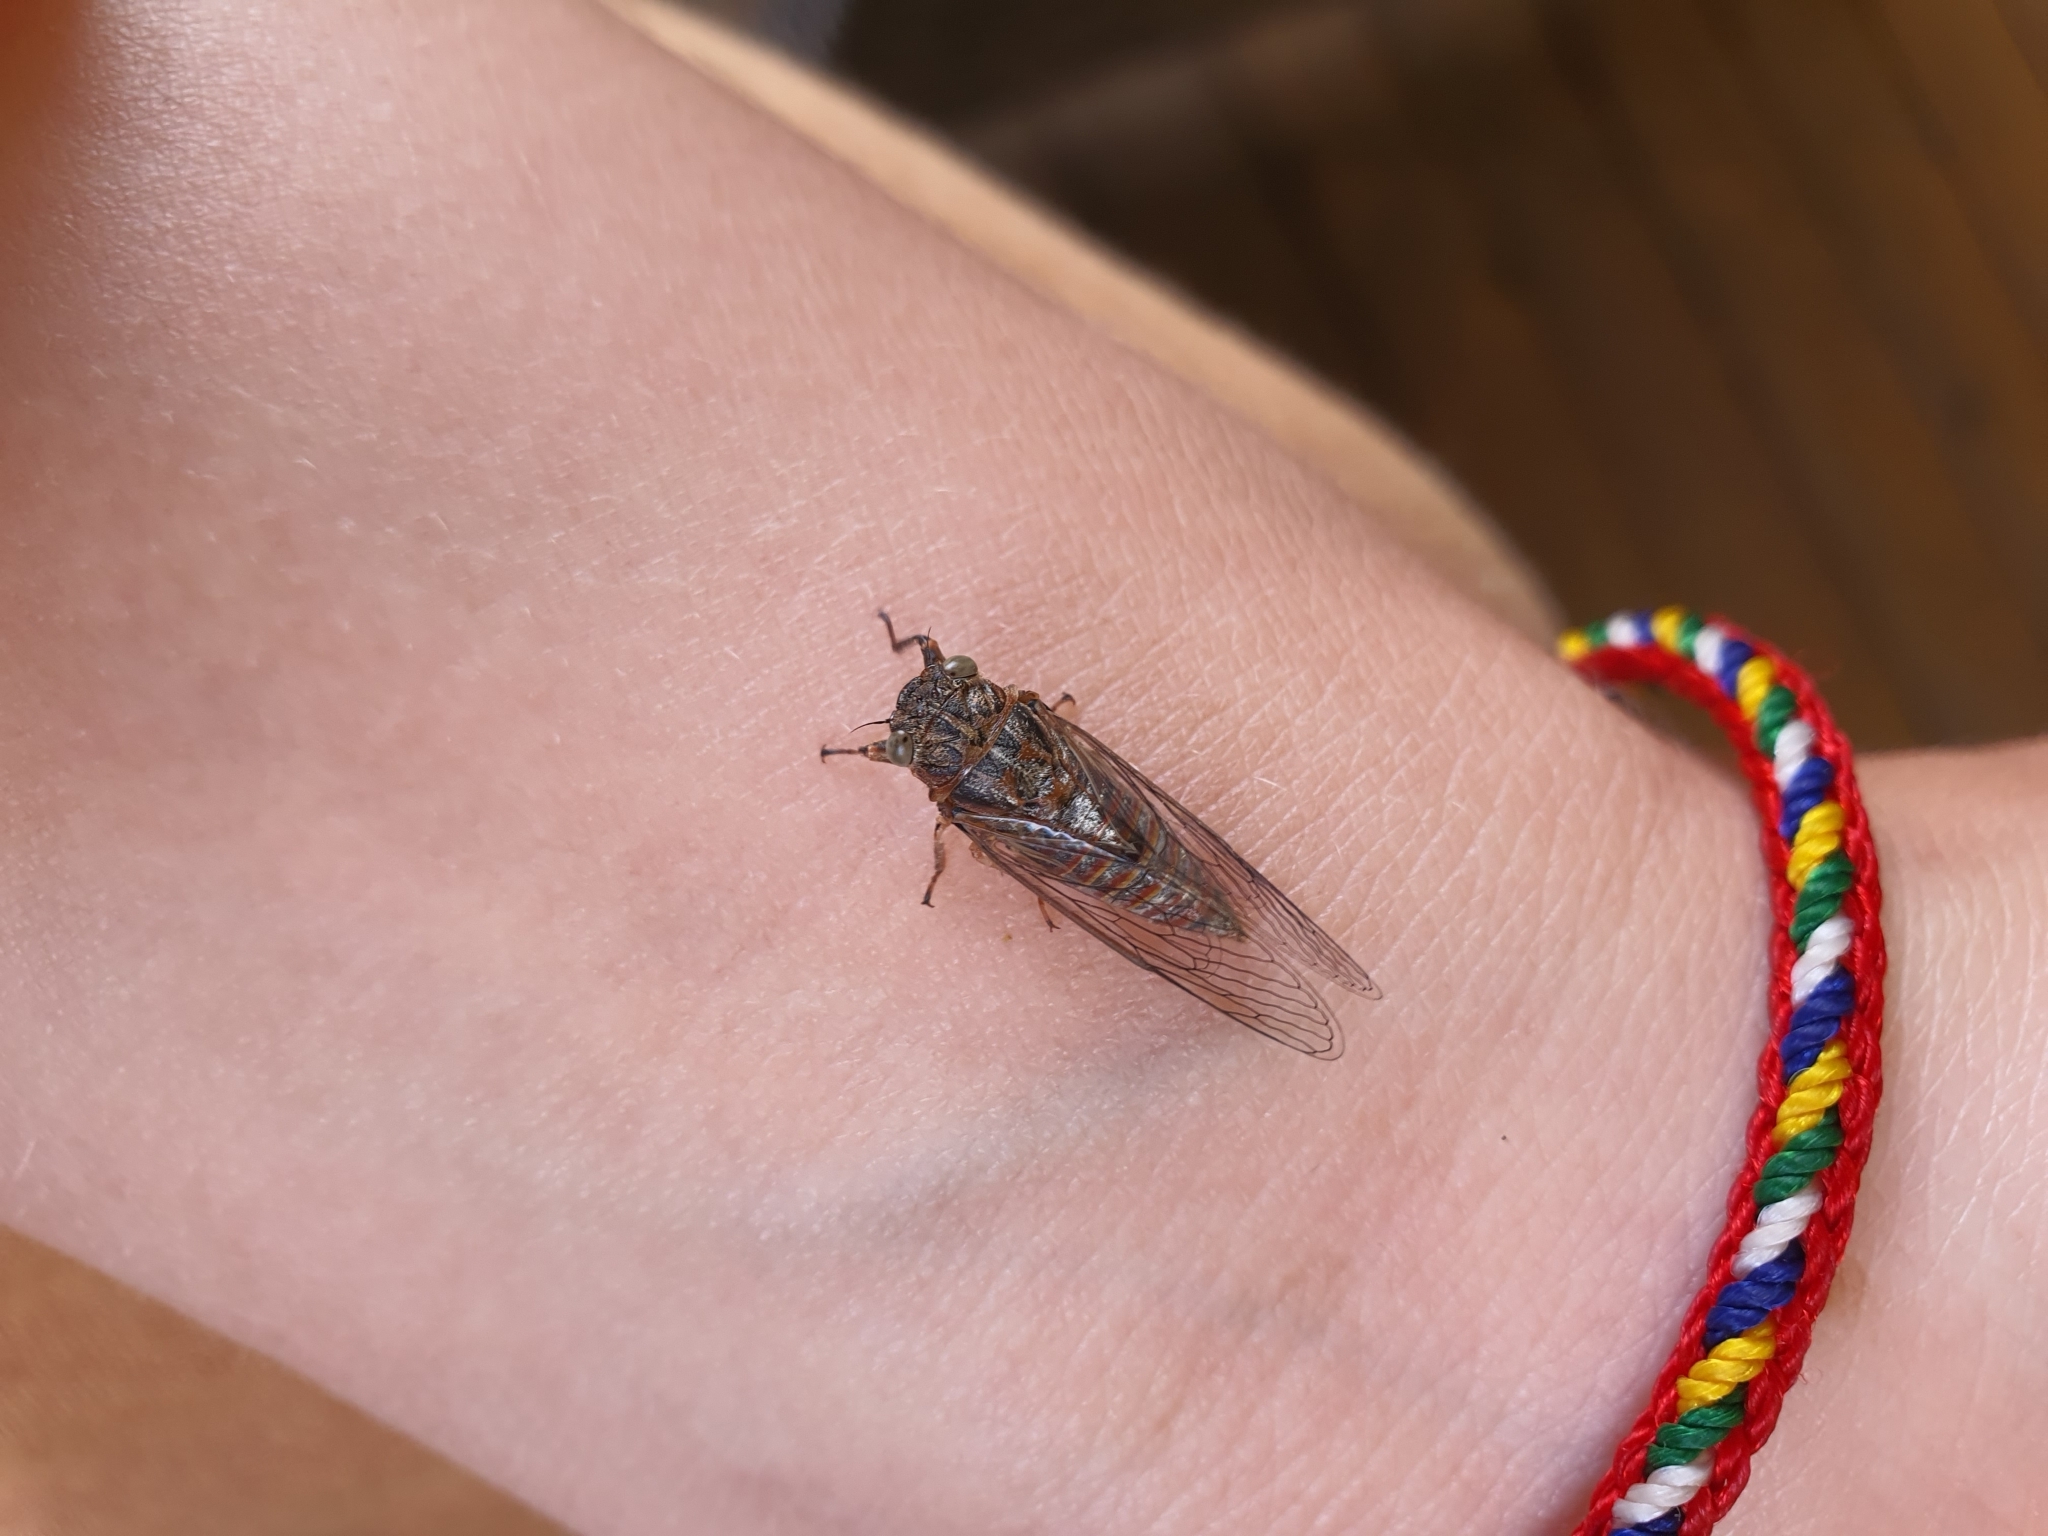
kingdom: Animalia
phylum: Arthropoda
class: Insecta
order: Hemiptera
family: Cicadidae
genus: Haemopsalta
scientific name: Haemopsalta aktites
